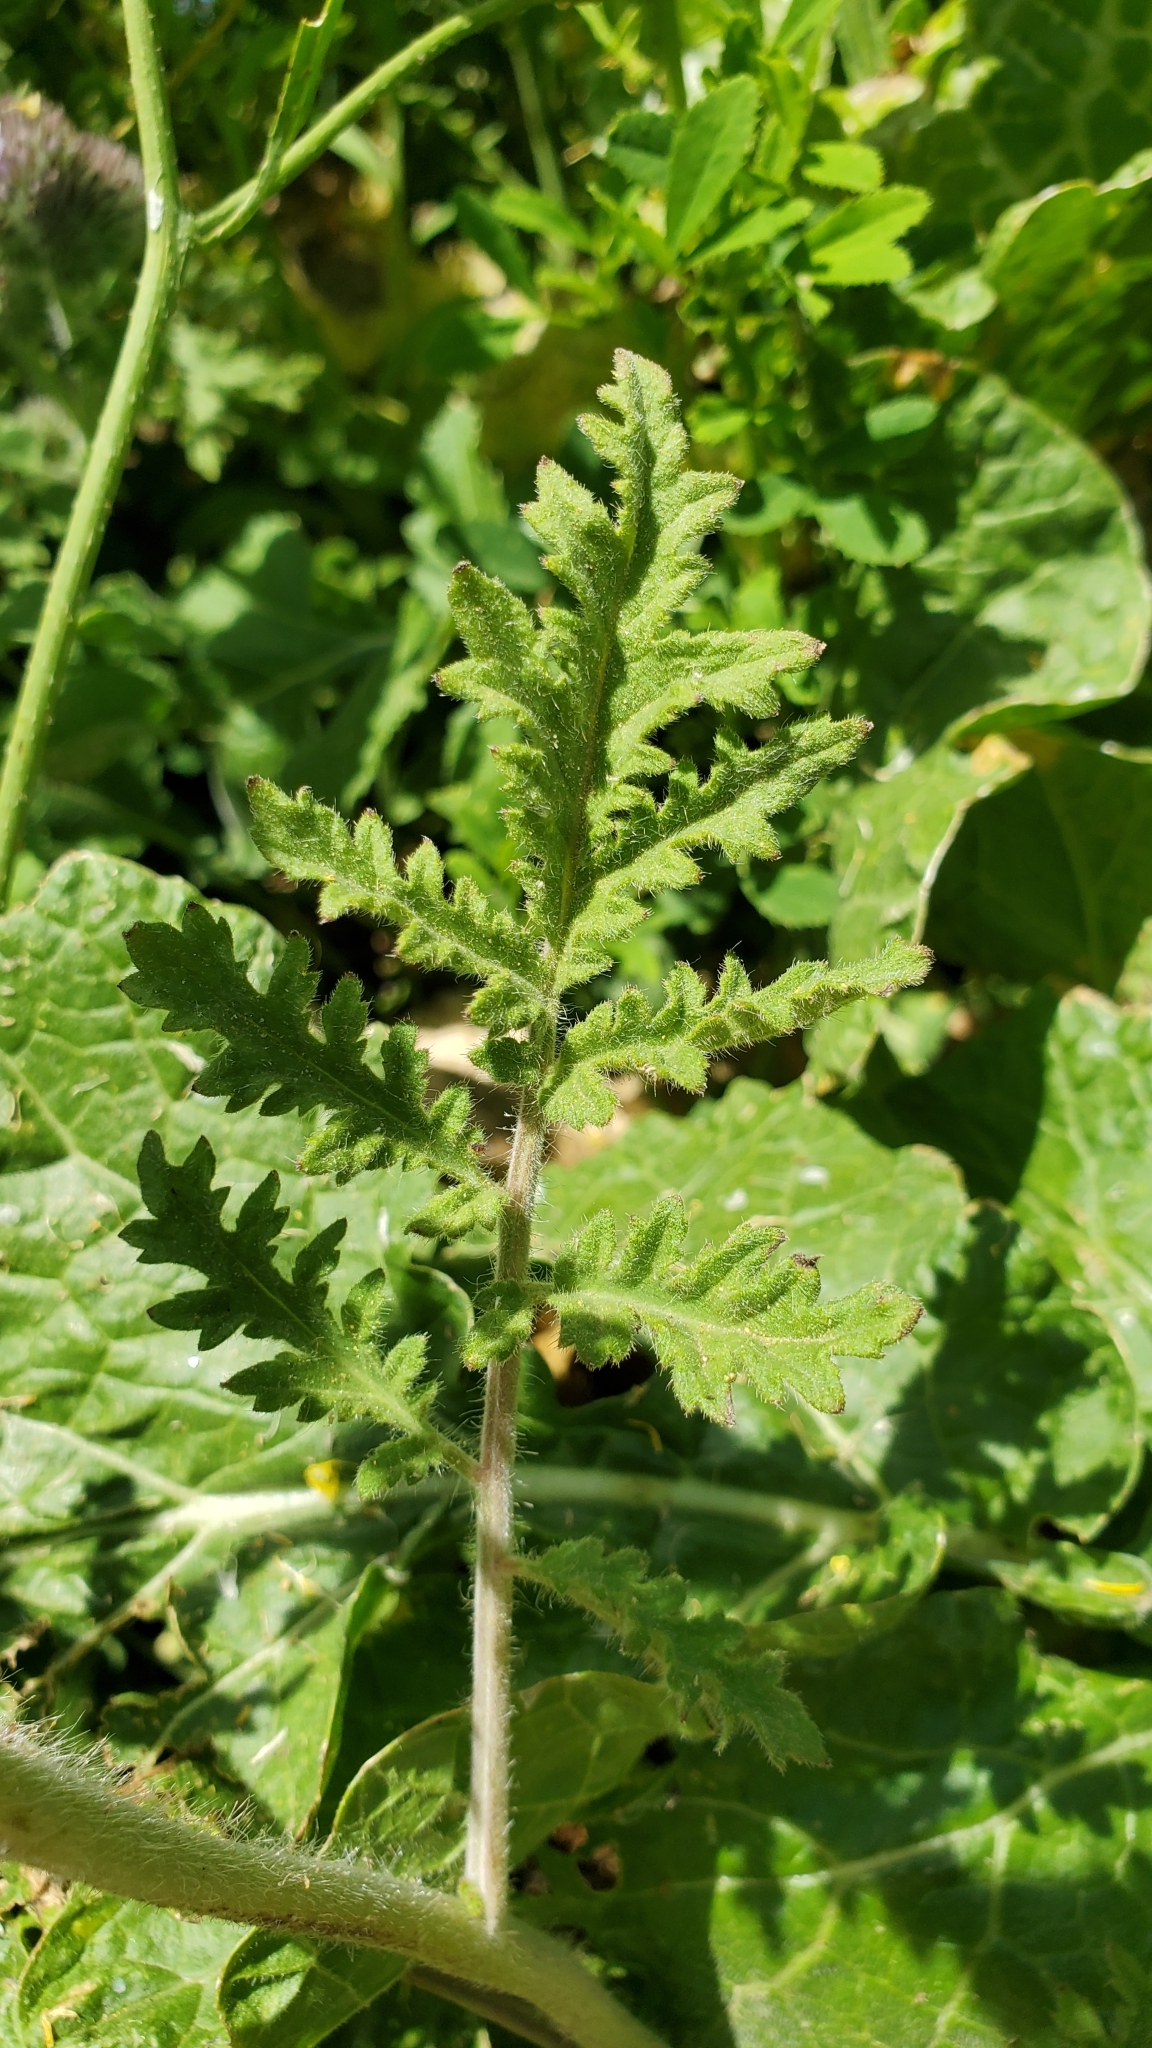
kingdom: Plantae
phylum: Tracheophyta
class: Magnoliopsida
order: Boraginales
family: Hydrophyllaceae
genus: Phacelia
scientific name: Phacelia hubbyi
